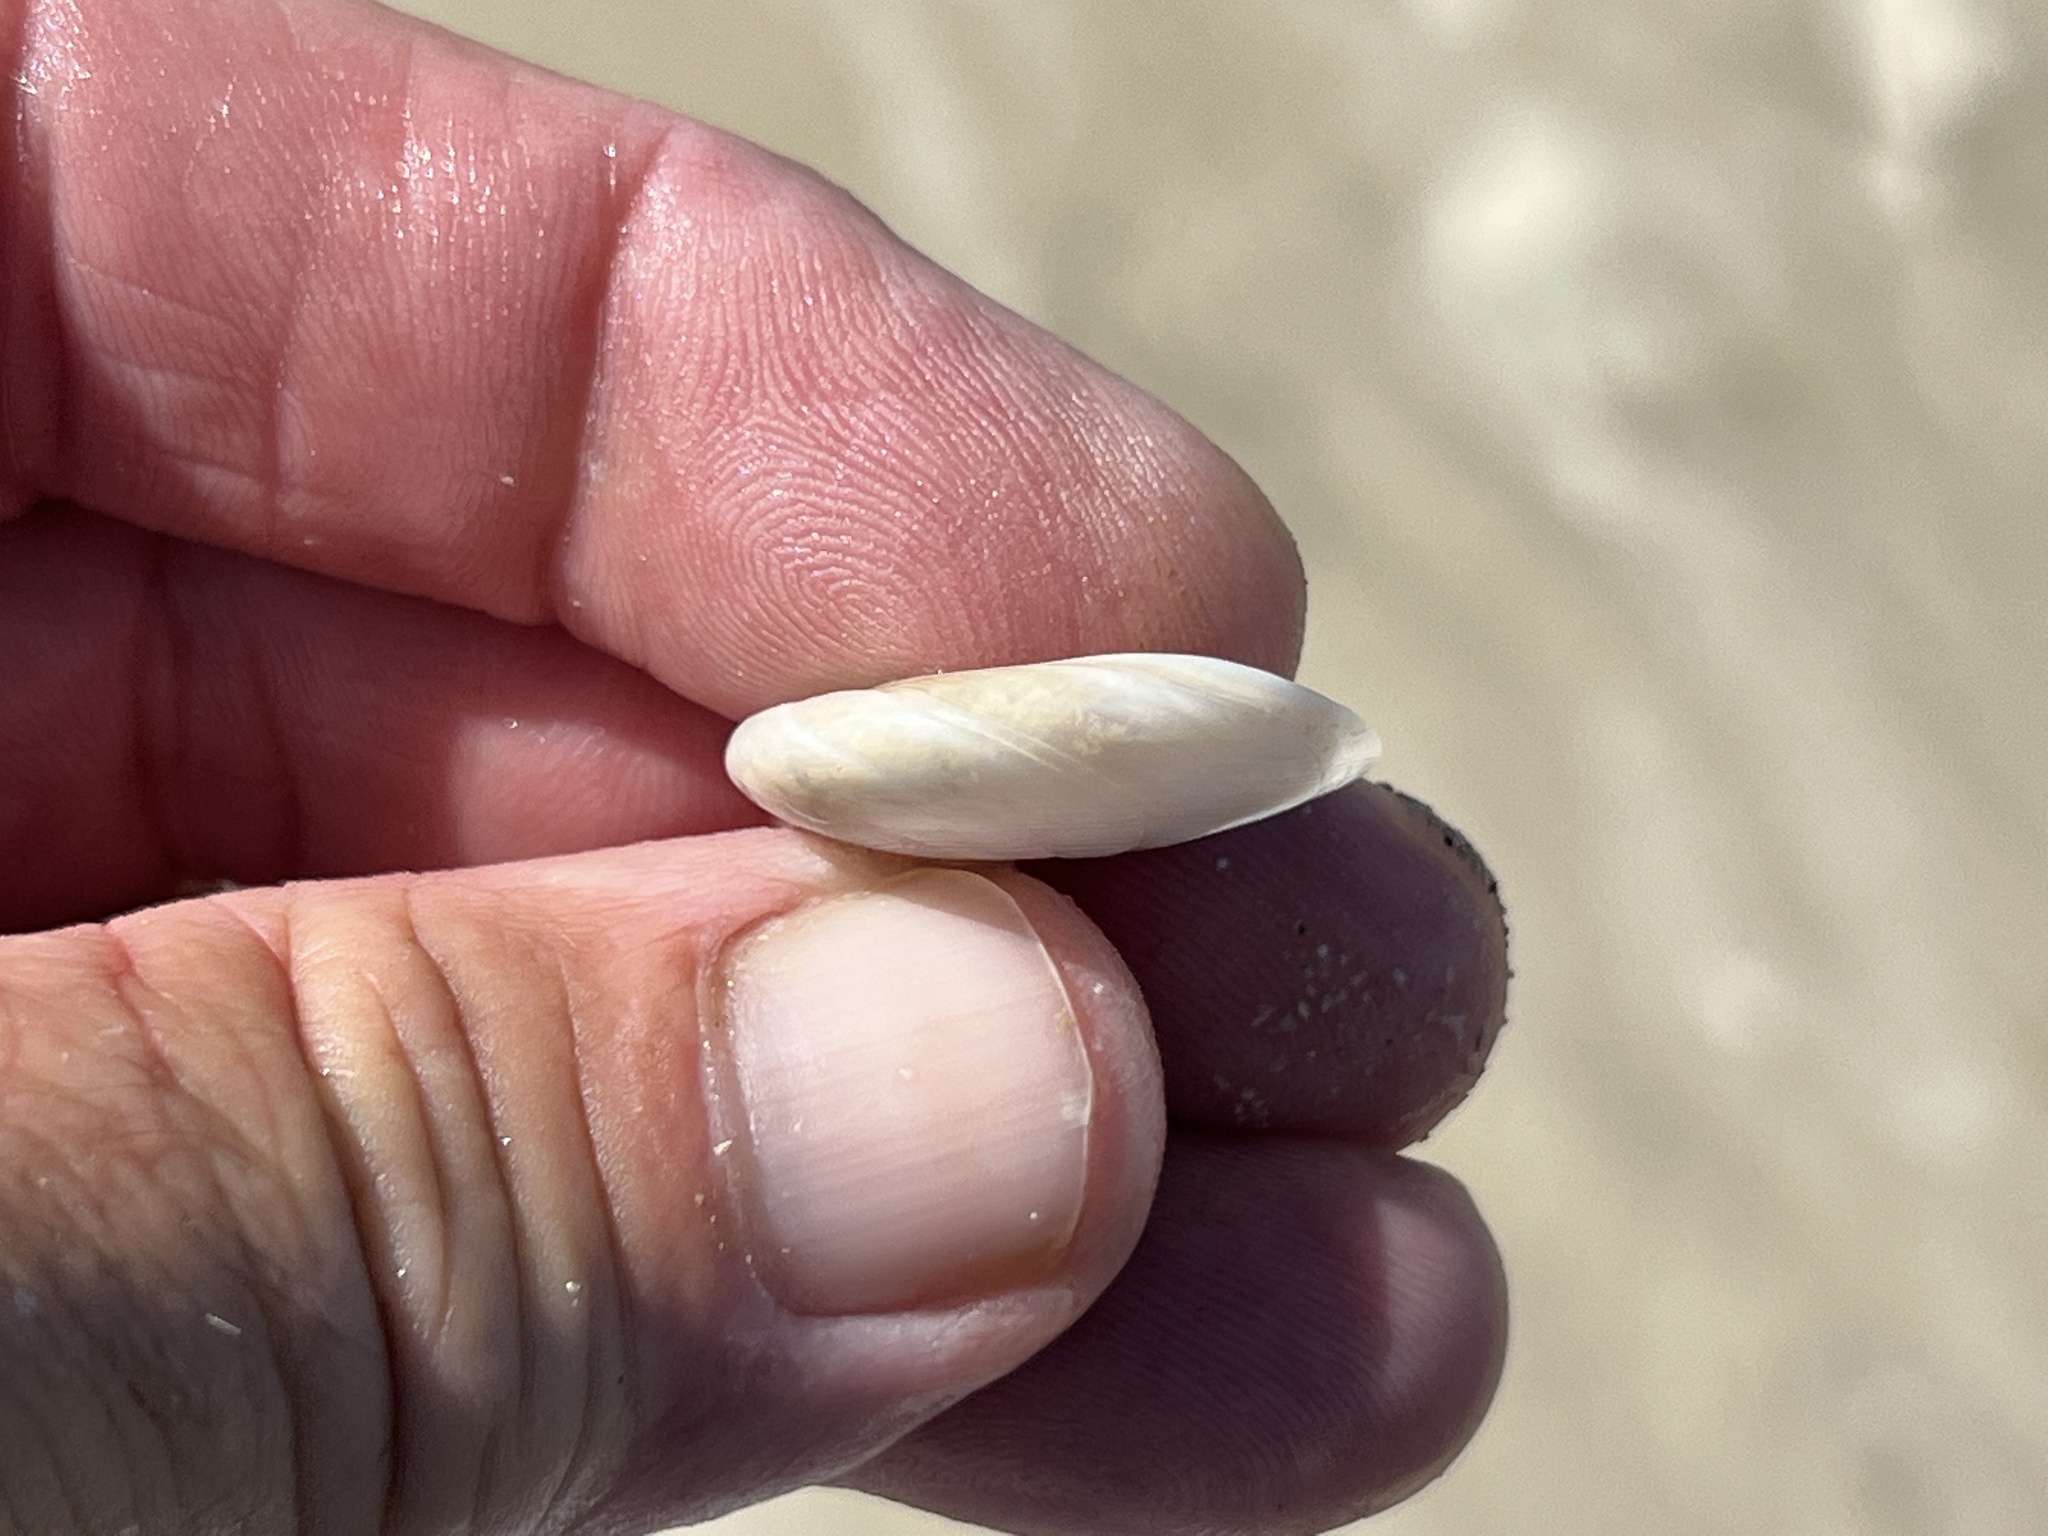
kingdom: Animalia
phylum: Mollusca
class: Gastropoda
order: Littorinimorpha
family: Naticidae
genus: Sinum
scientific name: Sinum perspectivum
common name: White baby ear
